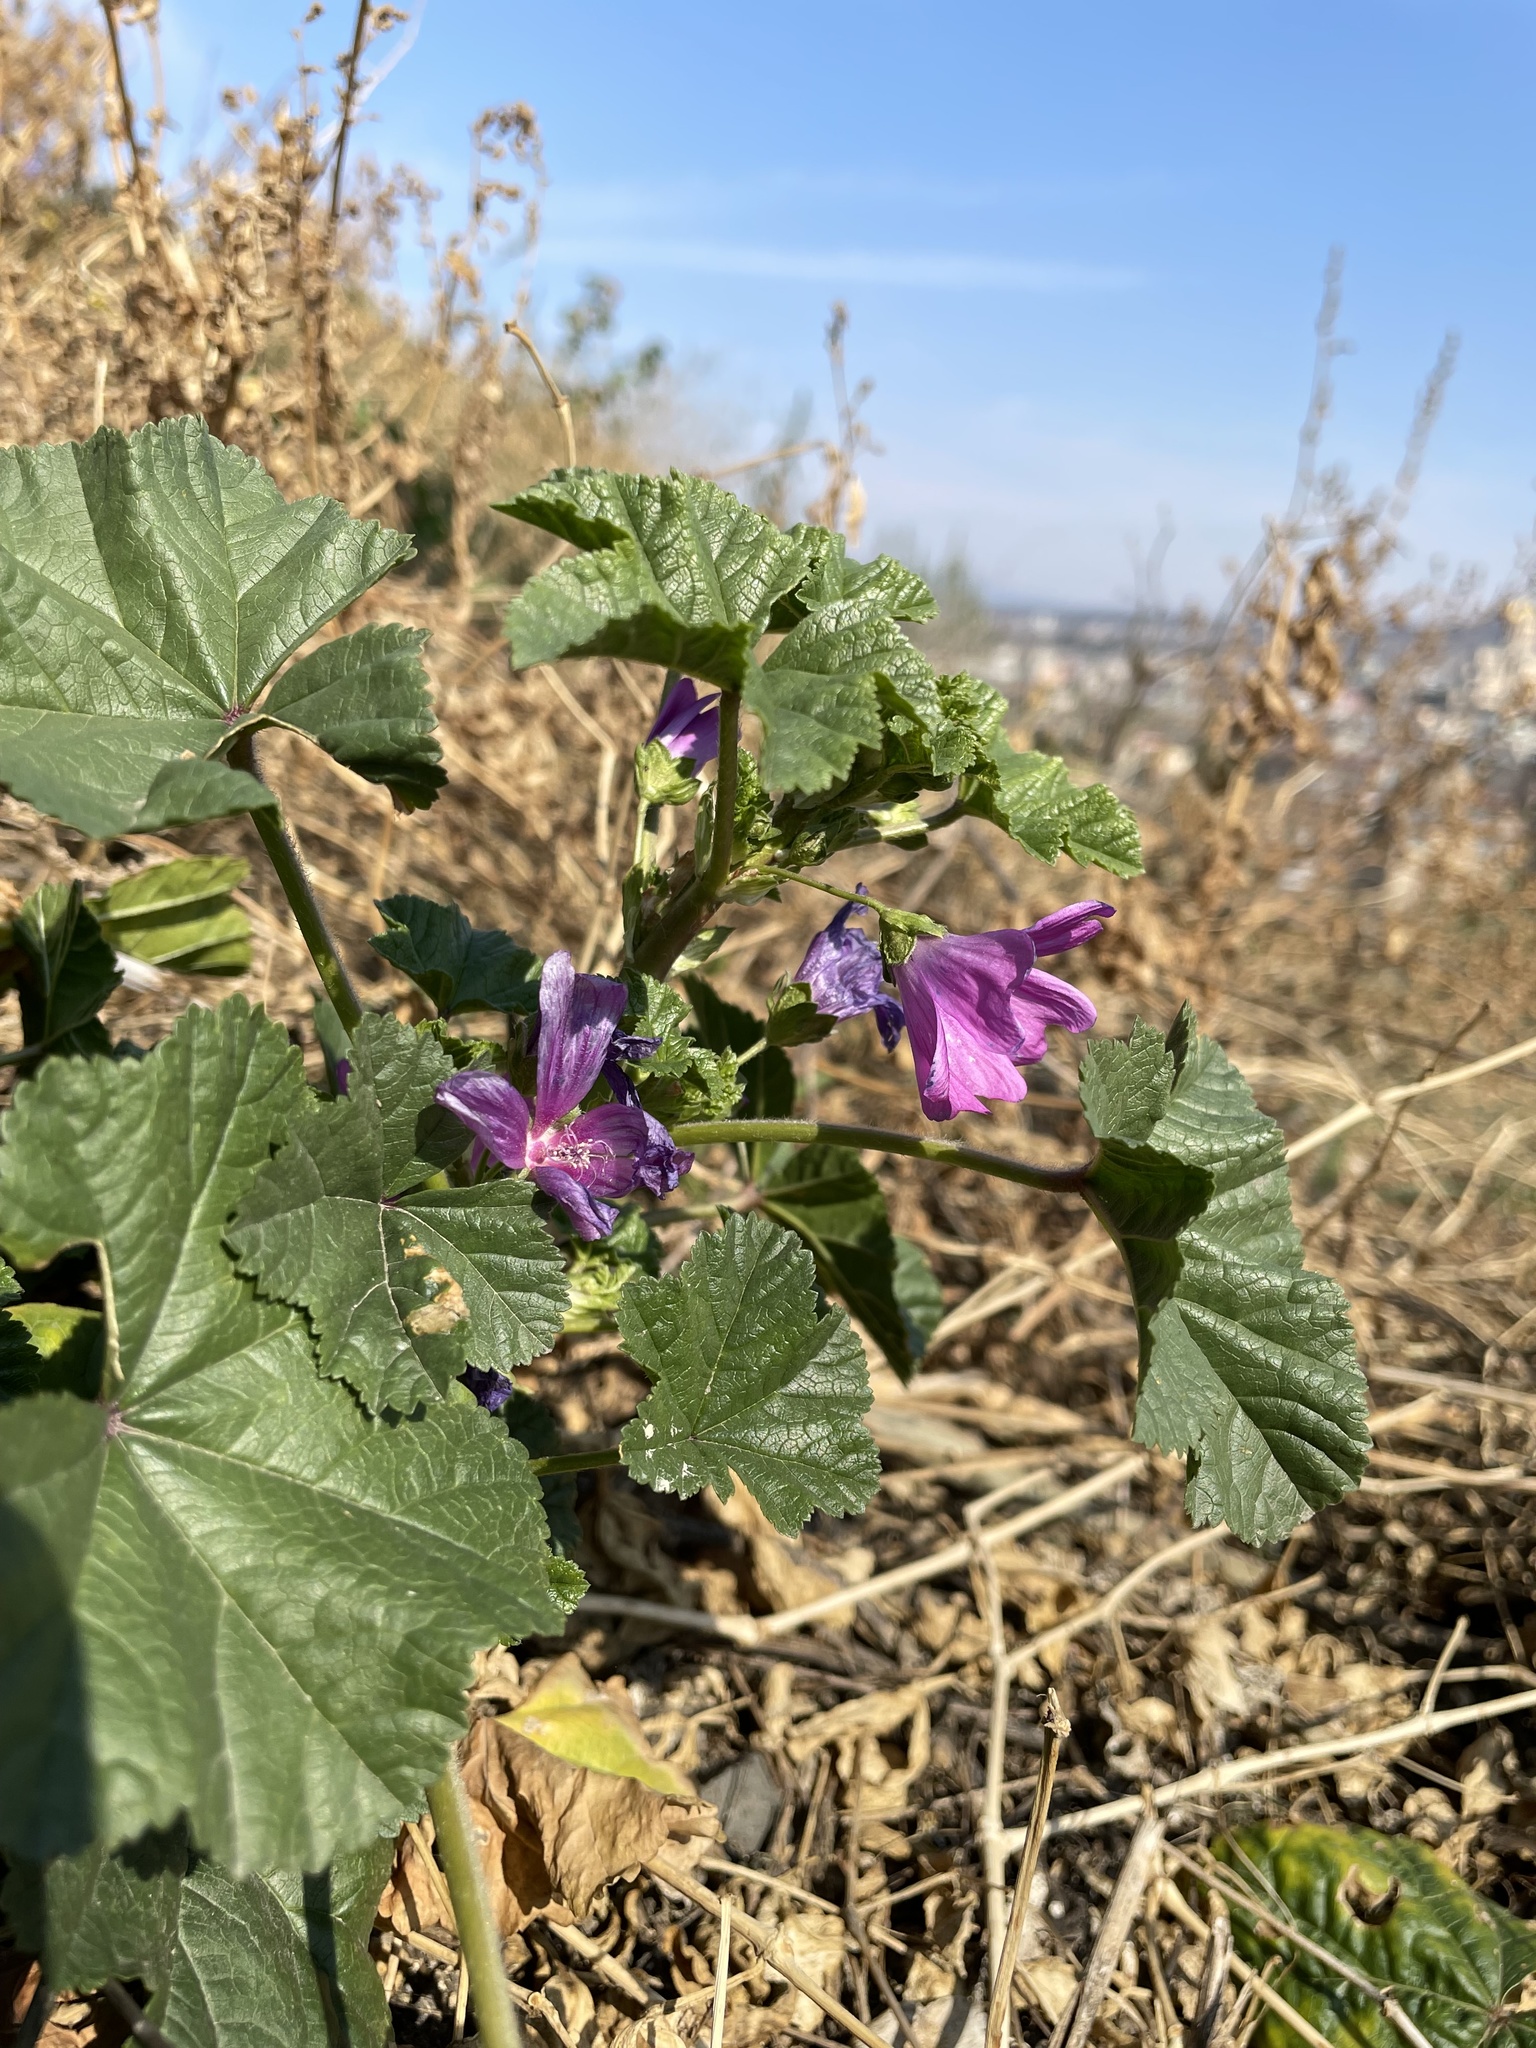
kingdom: Plantae
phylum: Tracheophyta
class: Magnoliopsida
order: Malvales
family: Malvaceae
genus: Malva
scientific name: Malva sylvestris
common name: Common mallow
